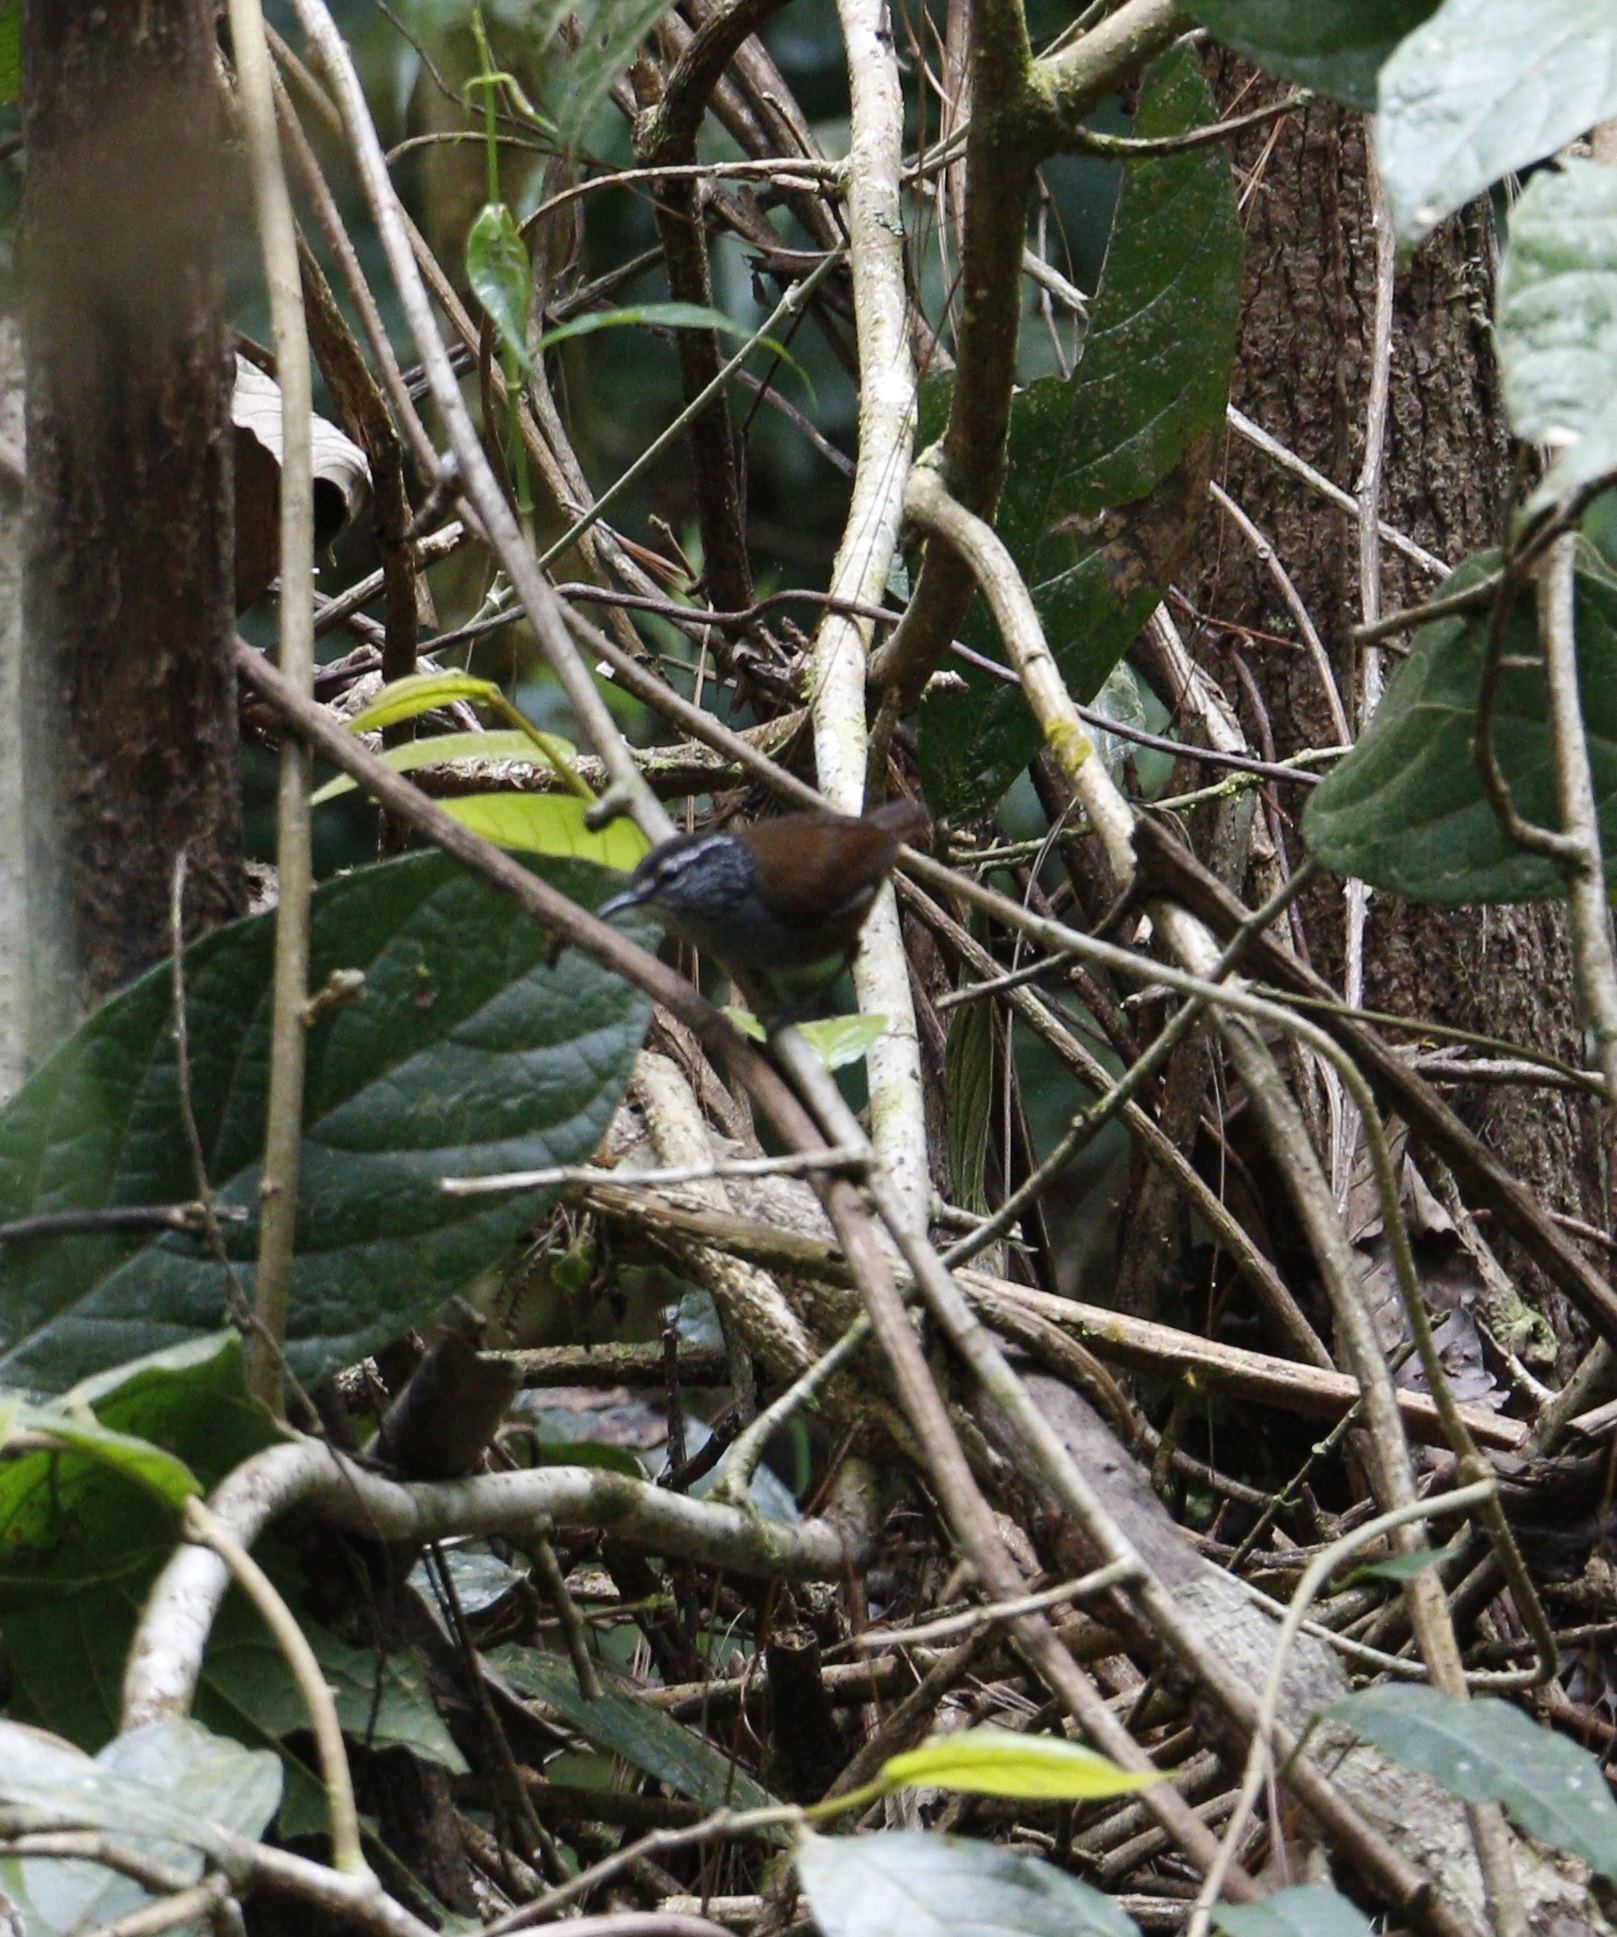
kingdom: Animalia
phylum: Chordata
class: Aves
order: Passeriformes
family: Troglodytidae
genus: Henicorhina
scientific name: Henicorhina leucophrys
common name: Gray-breasted wood-wren
